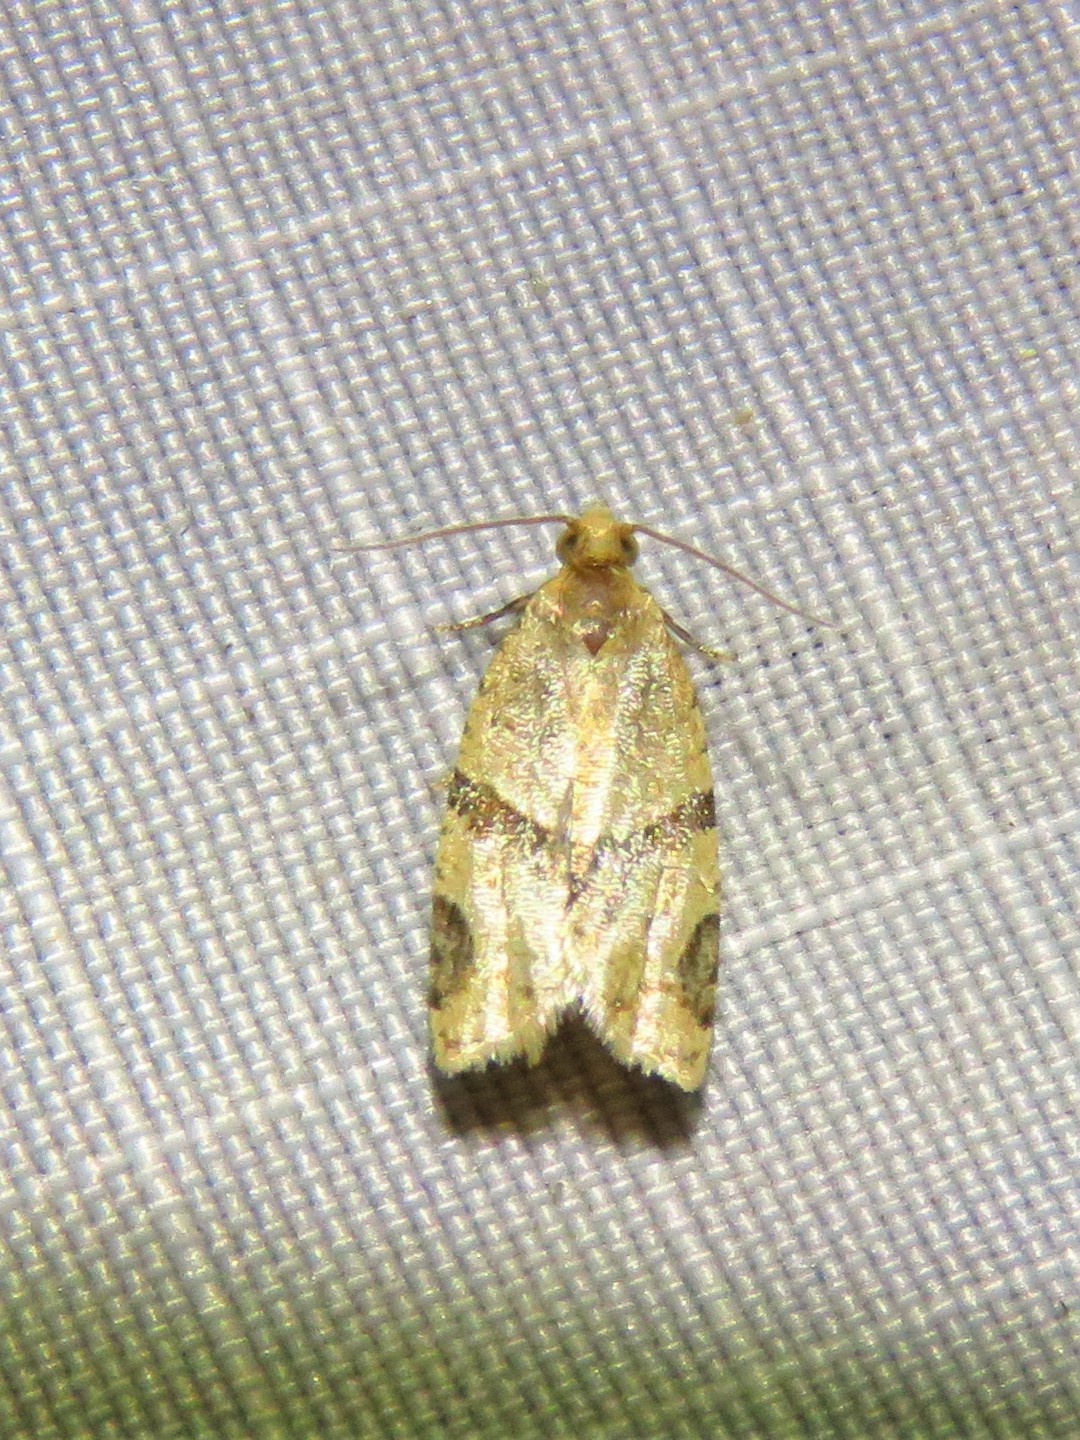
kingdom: Animalia
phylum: Arthropoda
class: Insecta
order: Lepidoptera
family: Tortricidae
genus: Clepsis
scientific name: Clepsis peritana
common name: Garden tortrix
